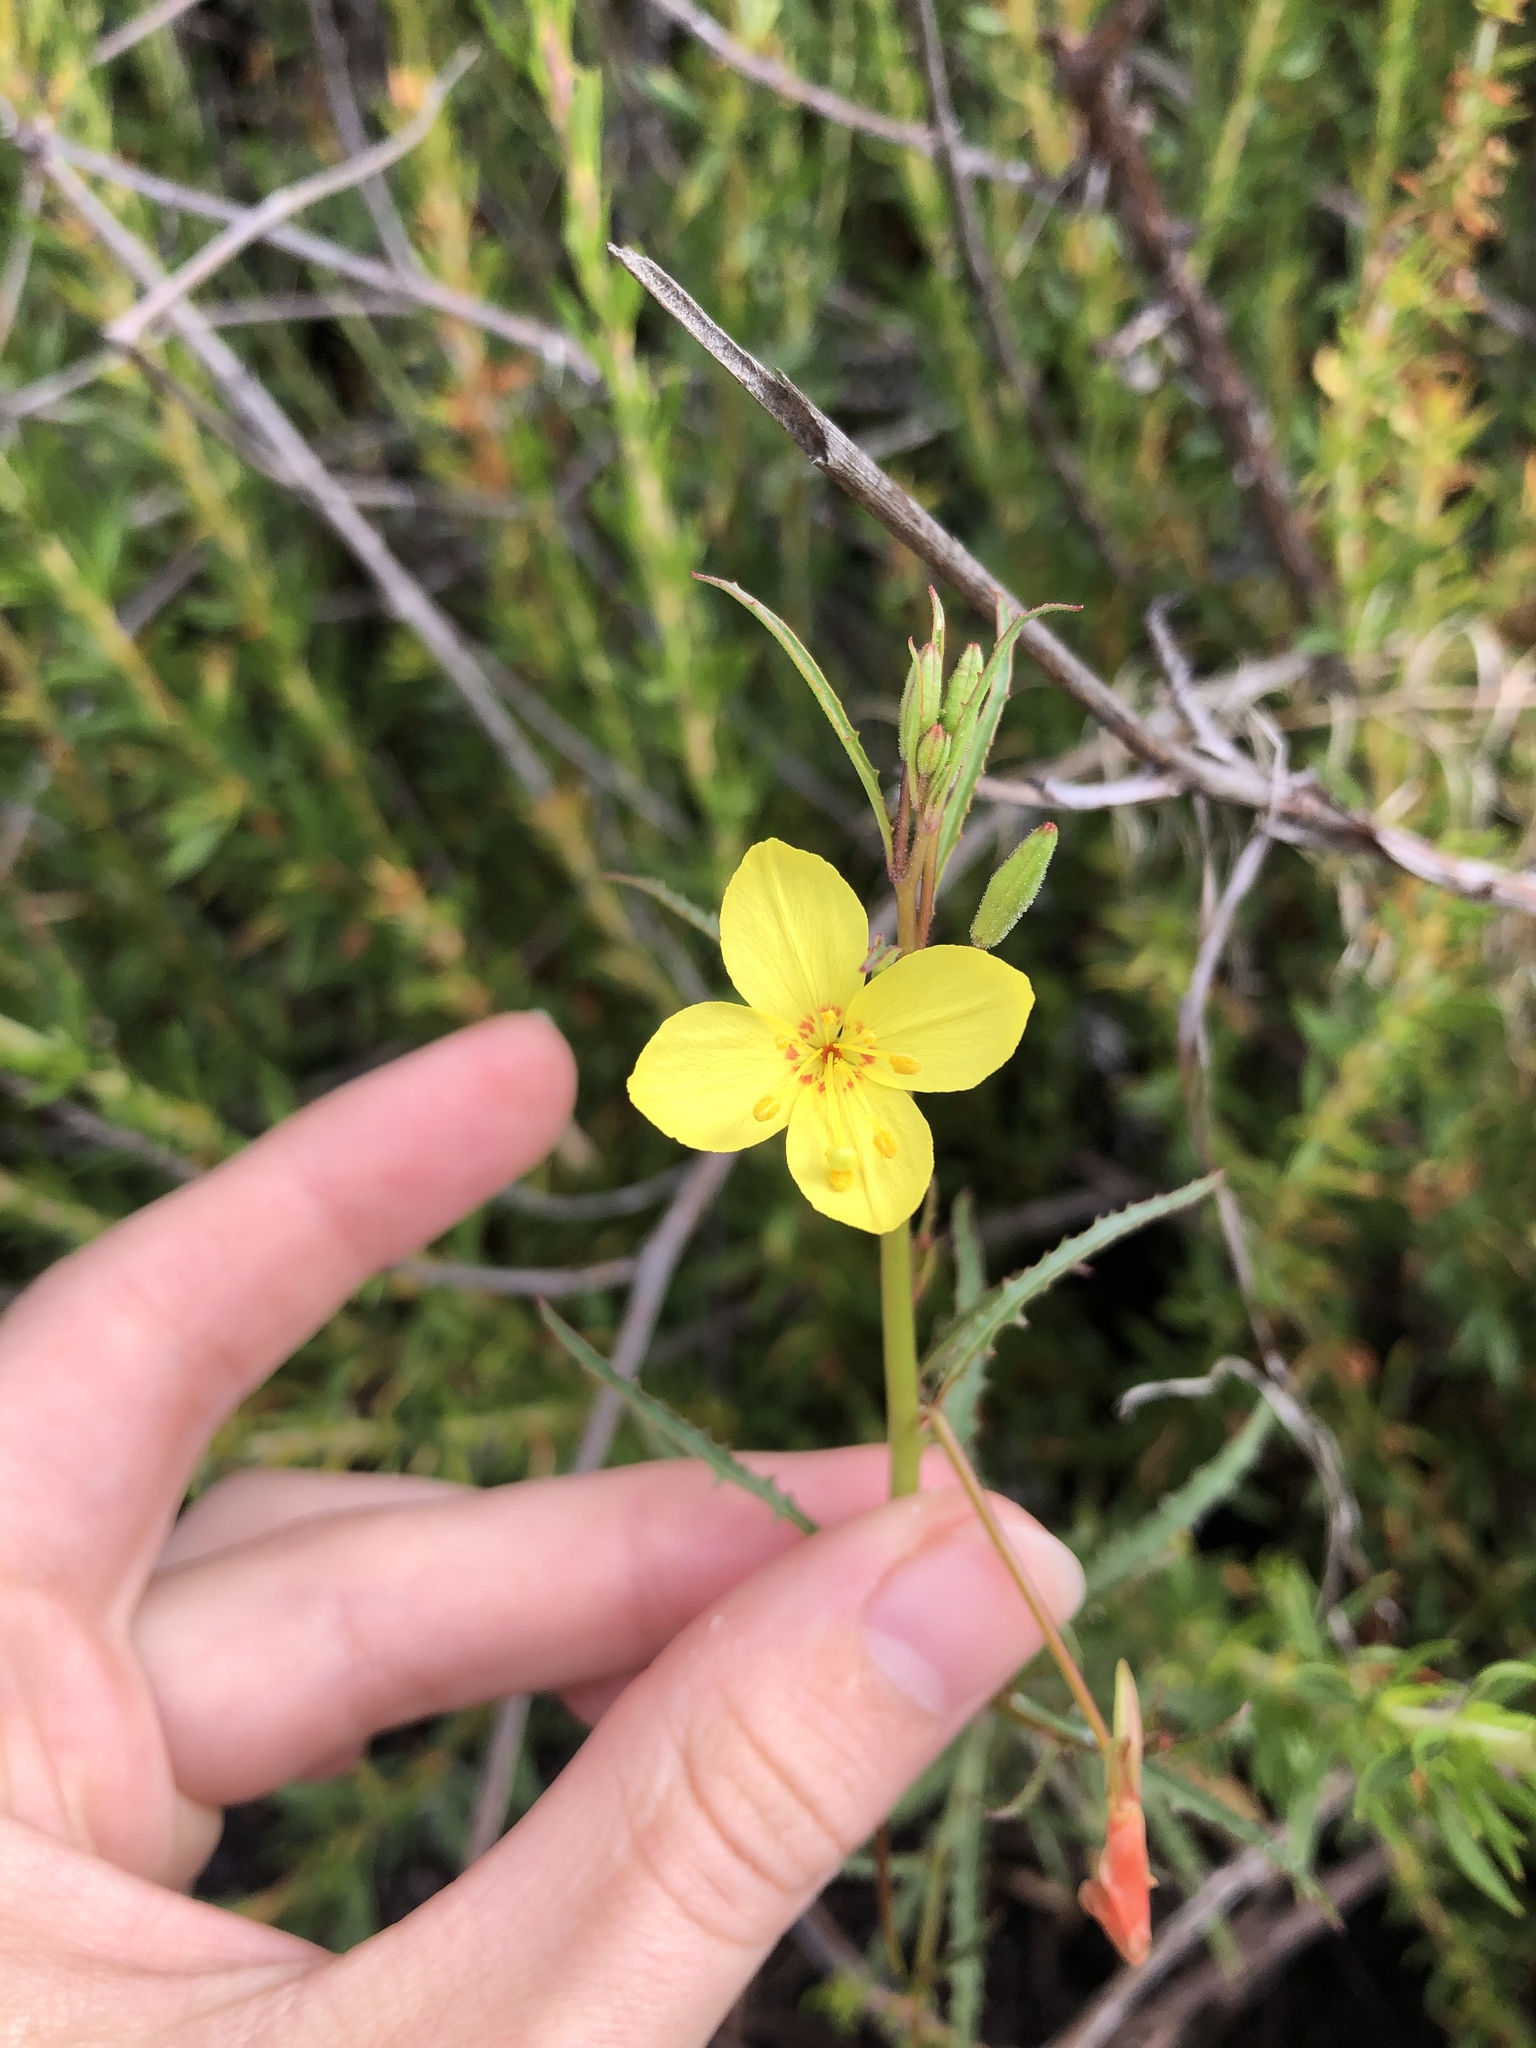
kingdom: Plantae
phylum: Tracheophyta
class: Magnoliopsida
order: Myrtales
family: Onagraceae
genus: Eulobus
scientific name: Eulobus californicus
